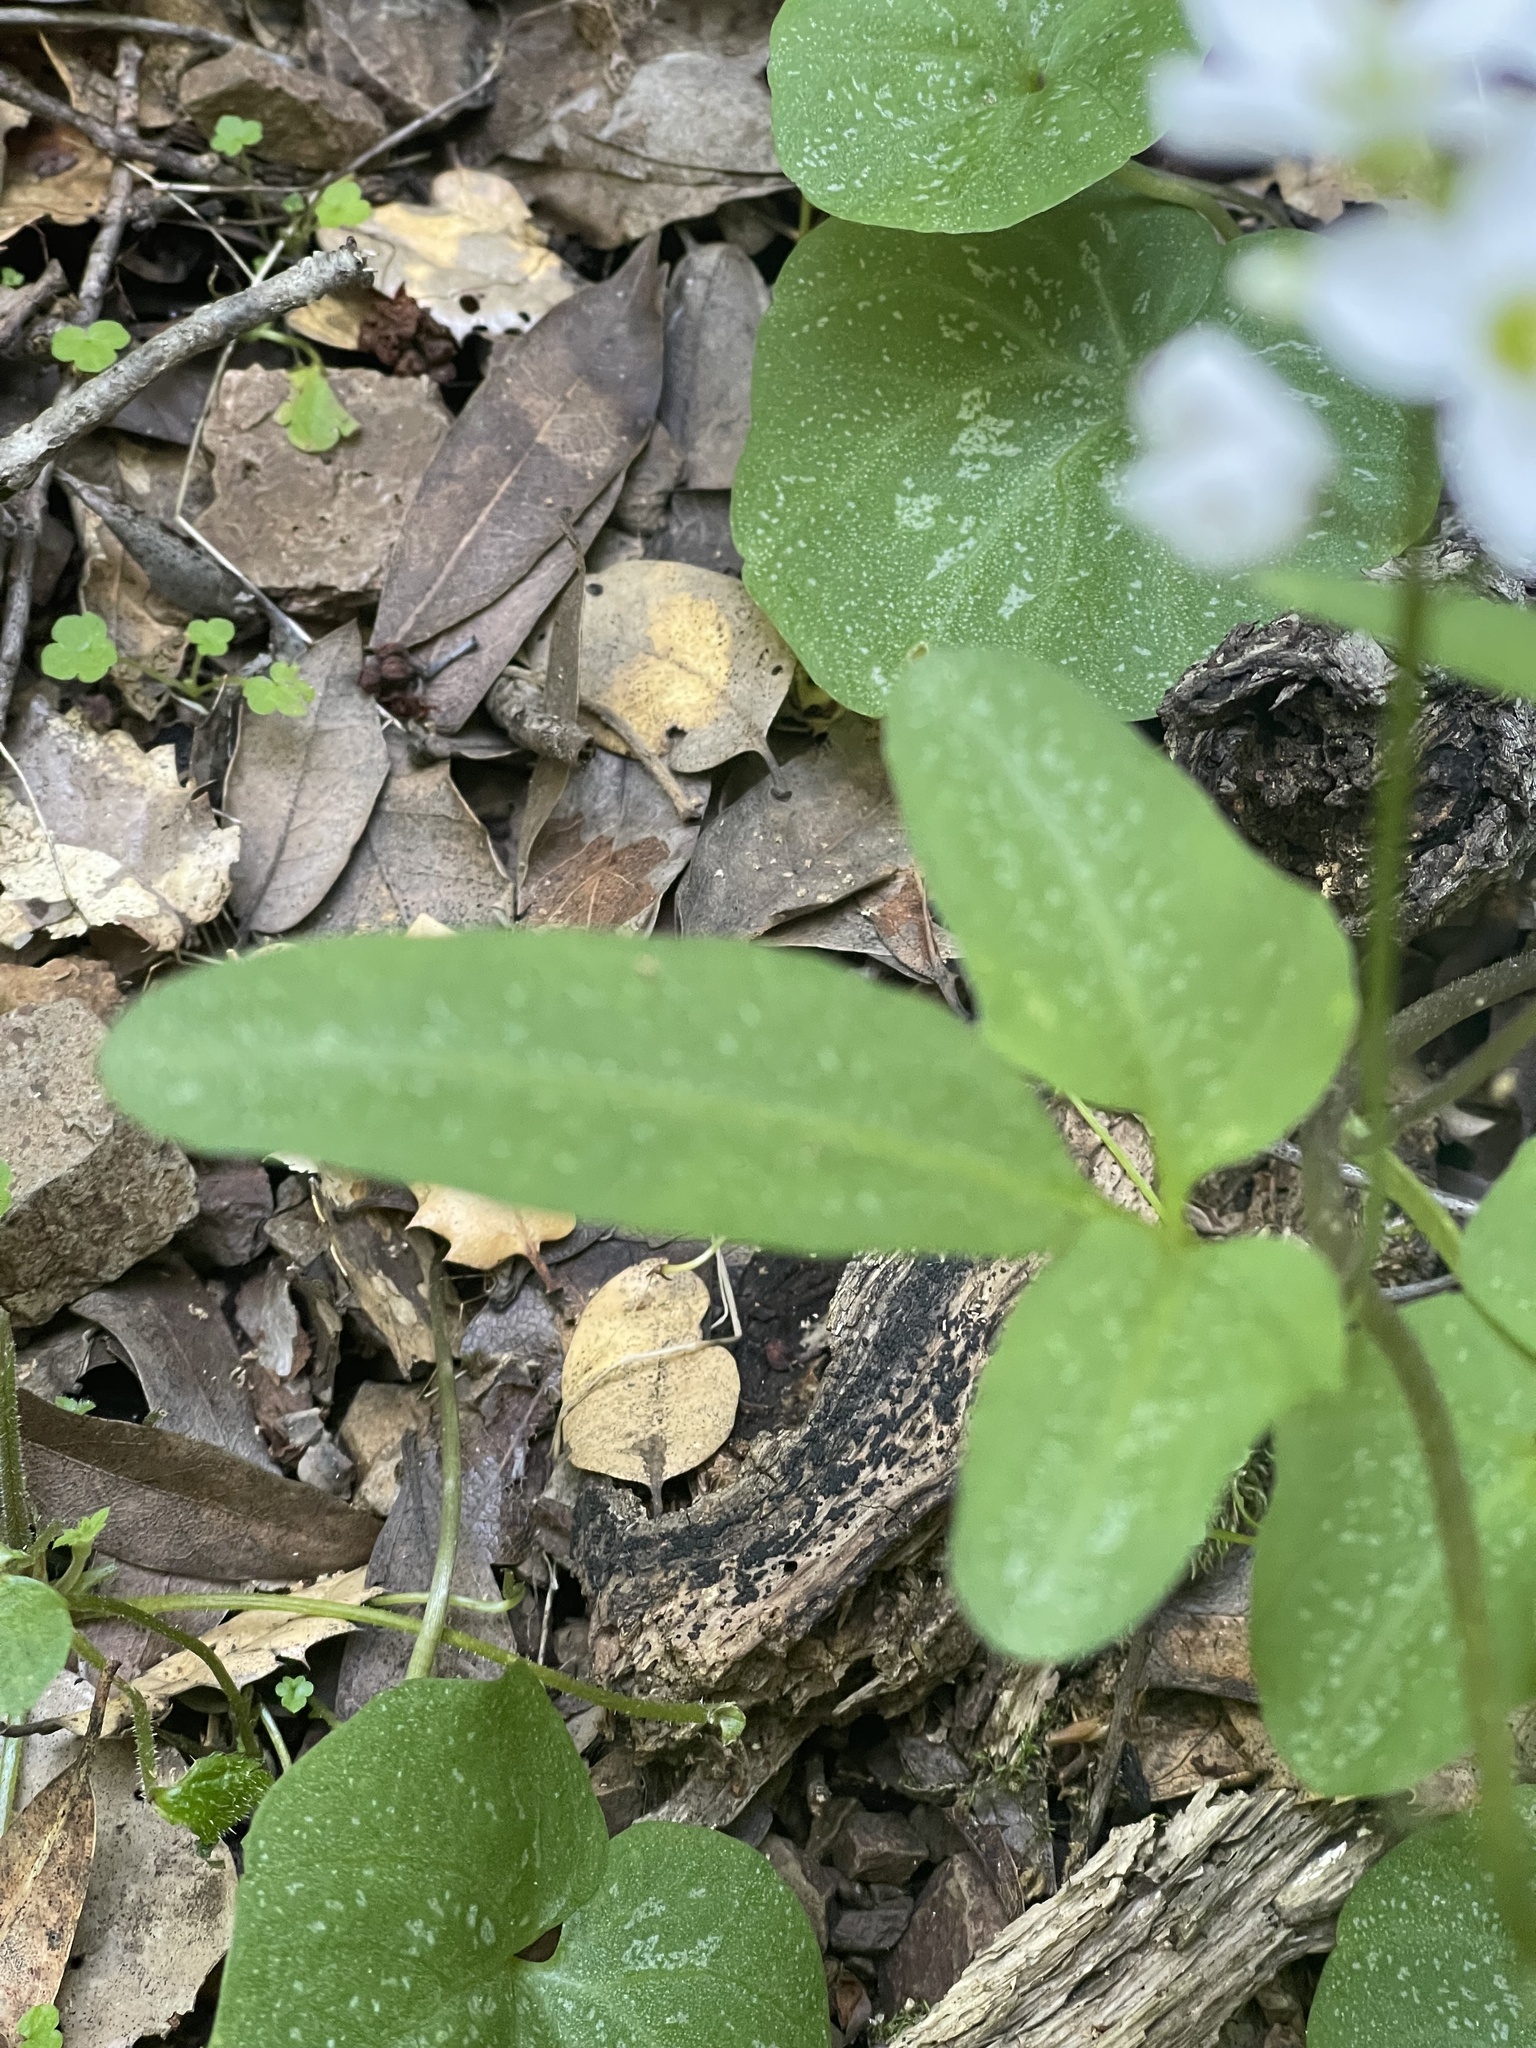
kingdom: Plantae
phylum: Tracheophyta
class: Magnoliopsida
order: Brassicales
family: Brassicaceae
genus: Cardamine
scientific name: Cardamine californica
